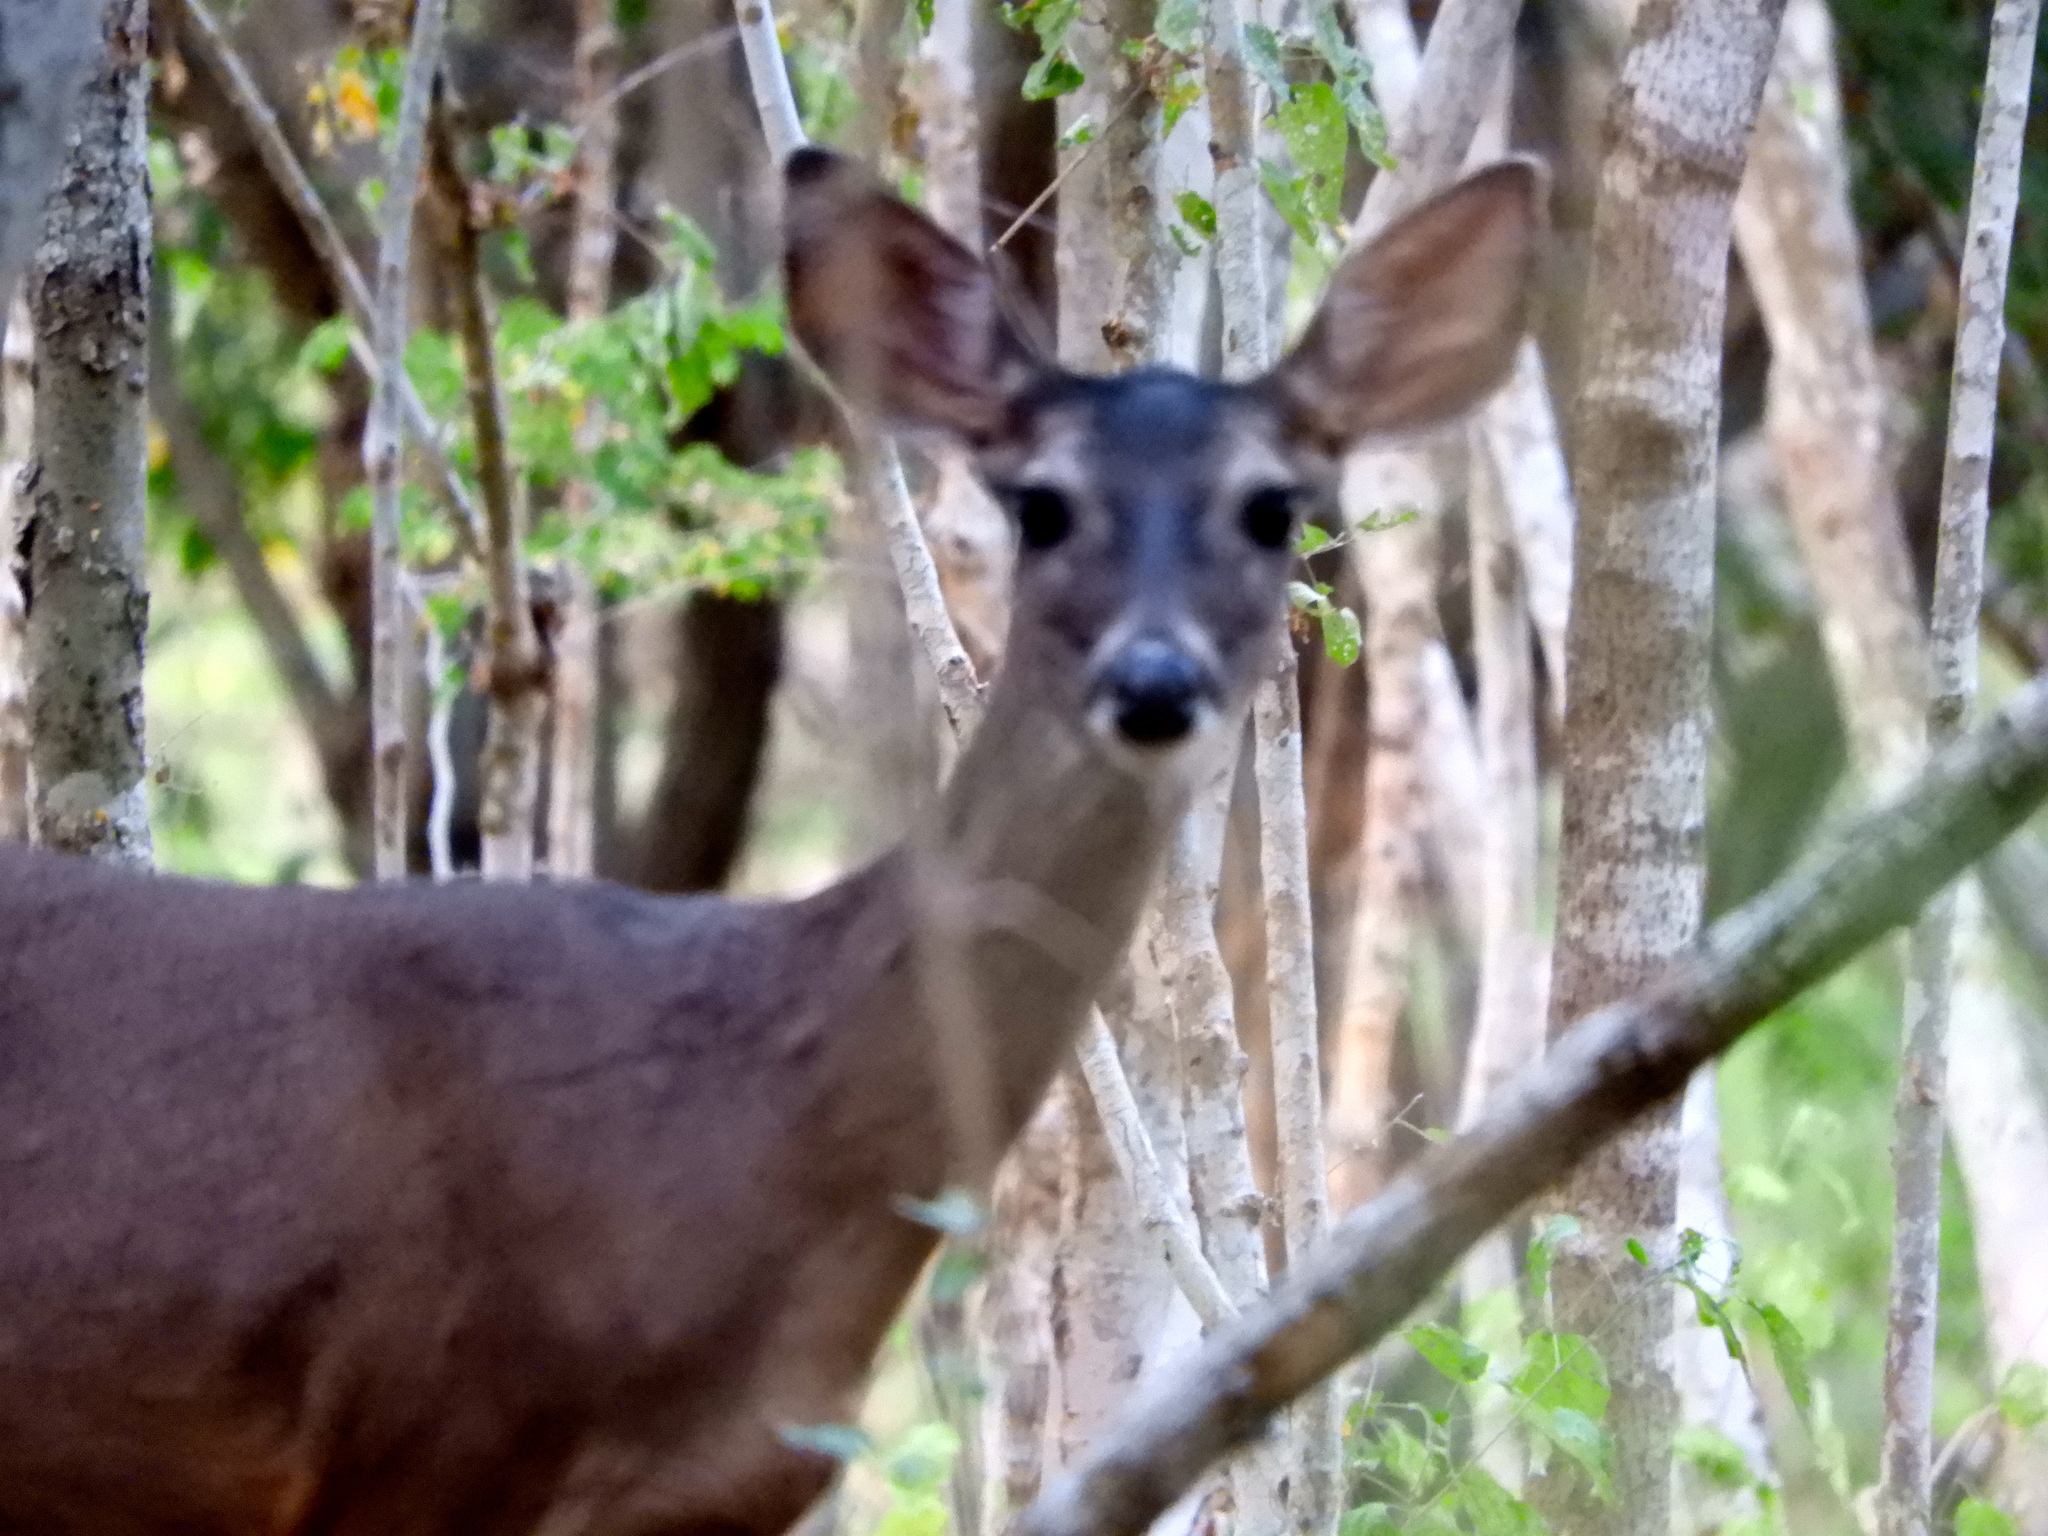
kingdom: Animalia
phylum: Chordata
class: Mammalia
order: Artiodactyla
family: Cervidae
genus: Odocoileus
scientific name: Odocoileus virginianus
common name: White-tailed deer
